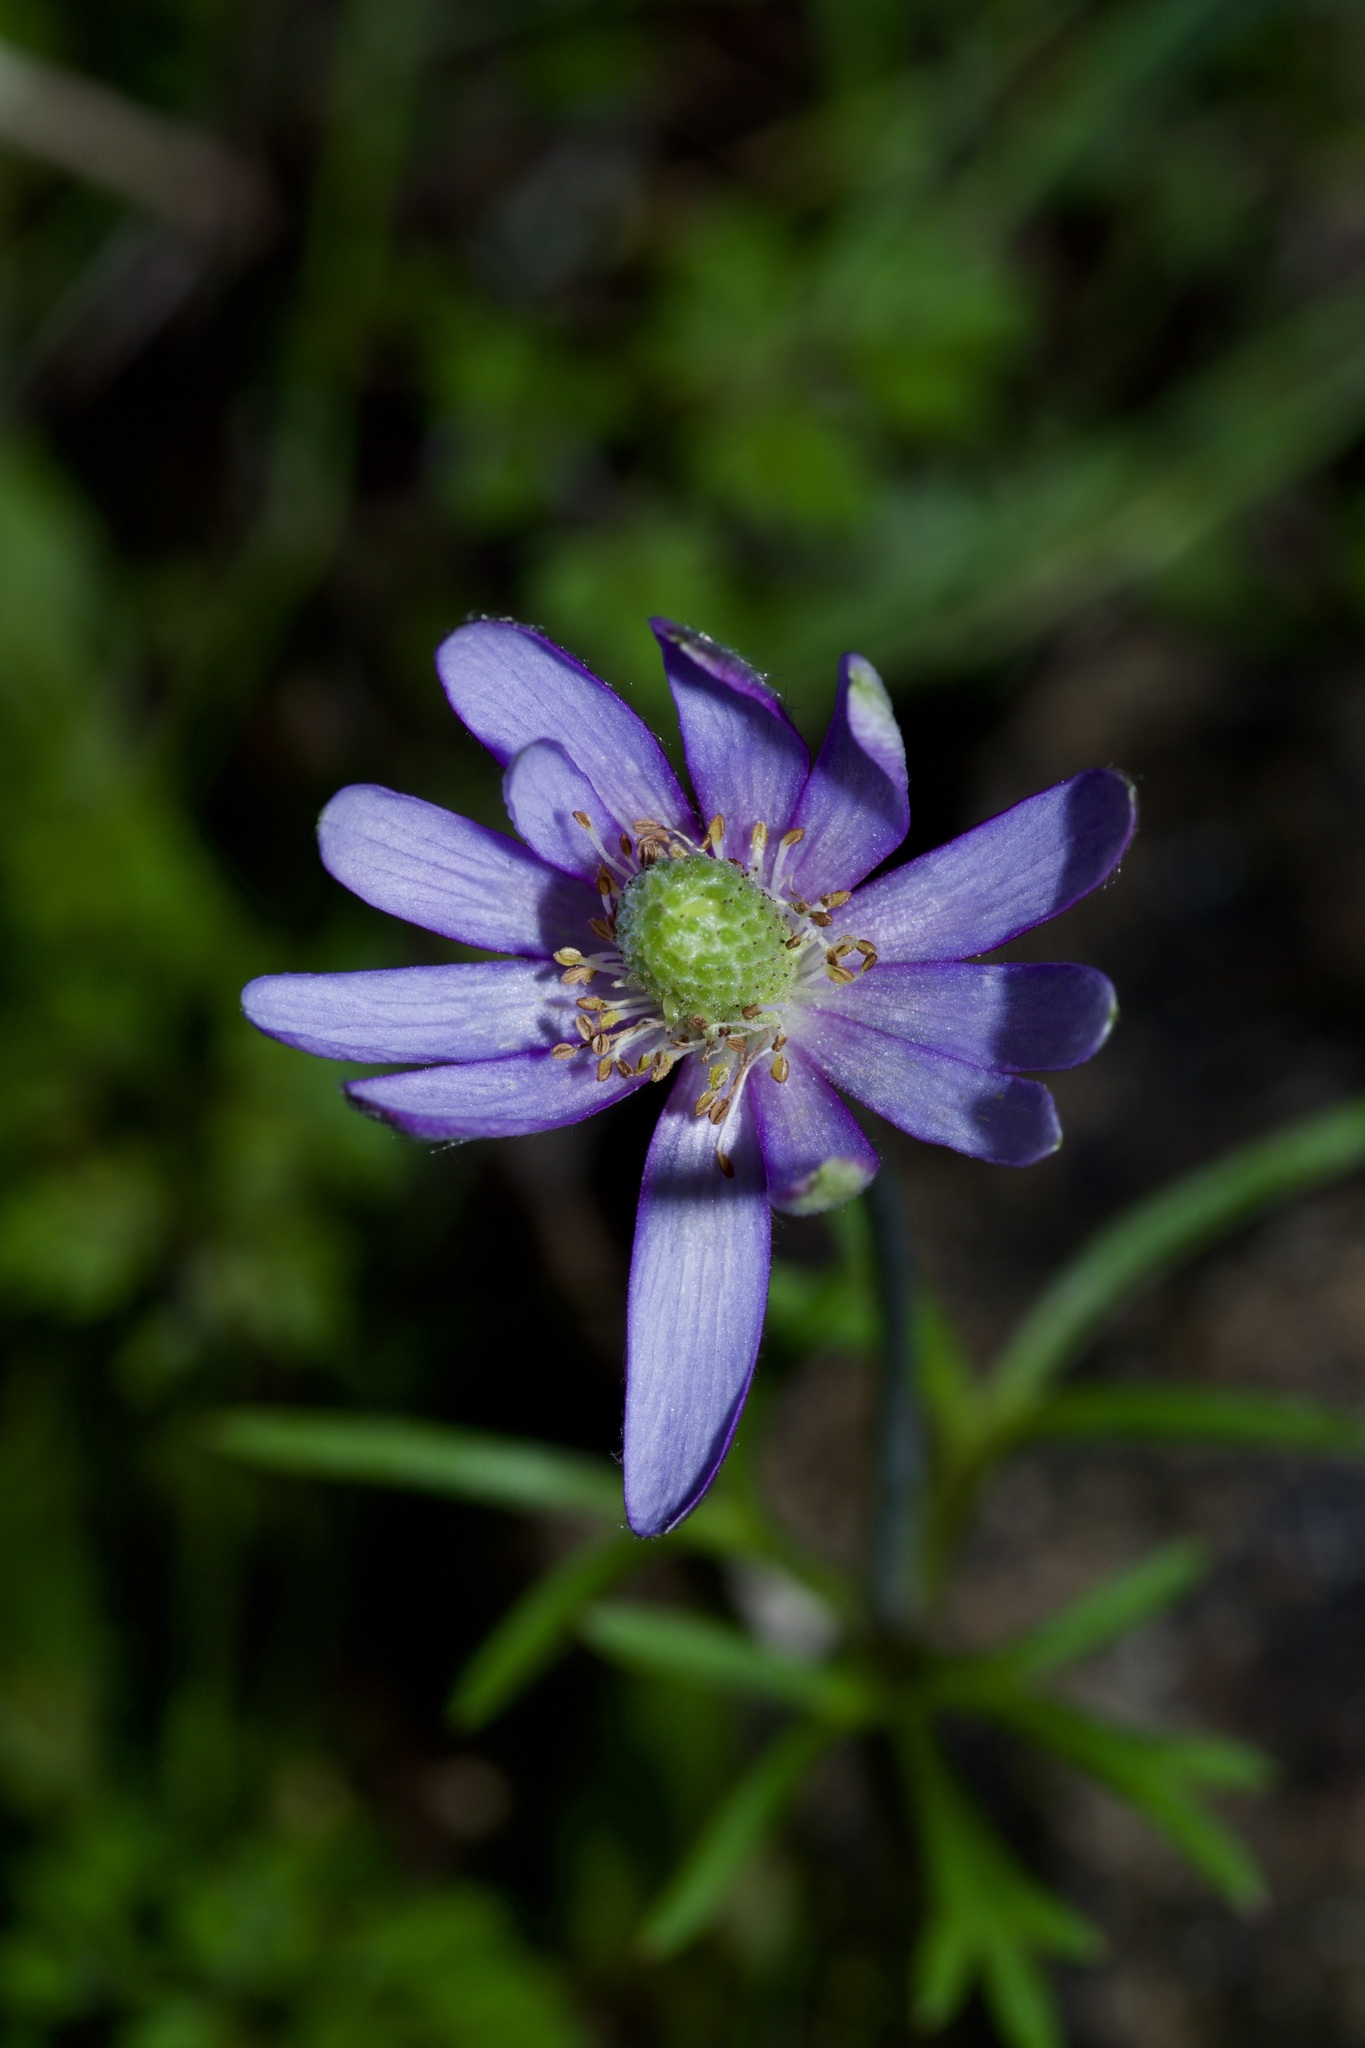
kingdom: Plantae
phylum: Tracheophyta
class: Magnoliopsida
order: Ranunculales
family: Ranunculaceae
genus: Anemone
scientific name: Anemone berlandieri
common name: Ten-petal anemone
